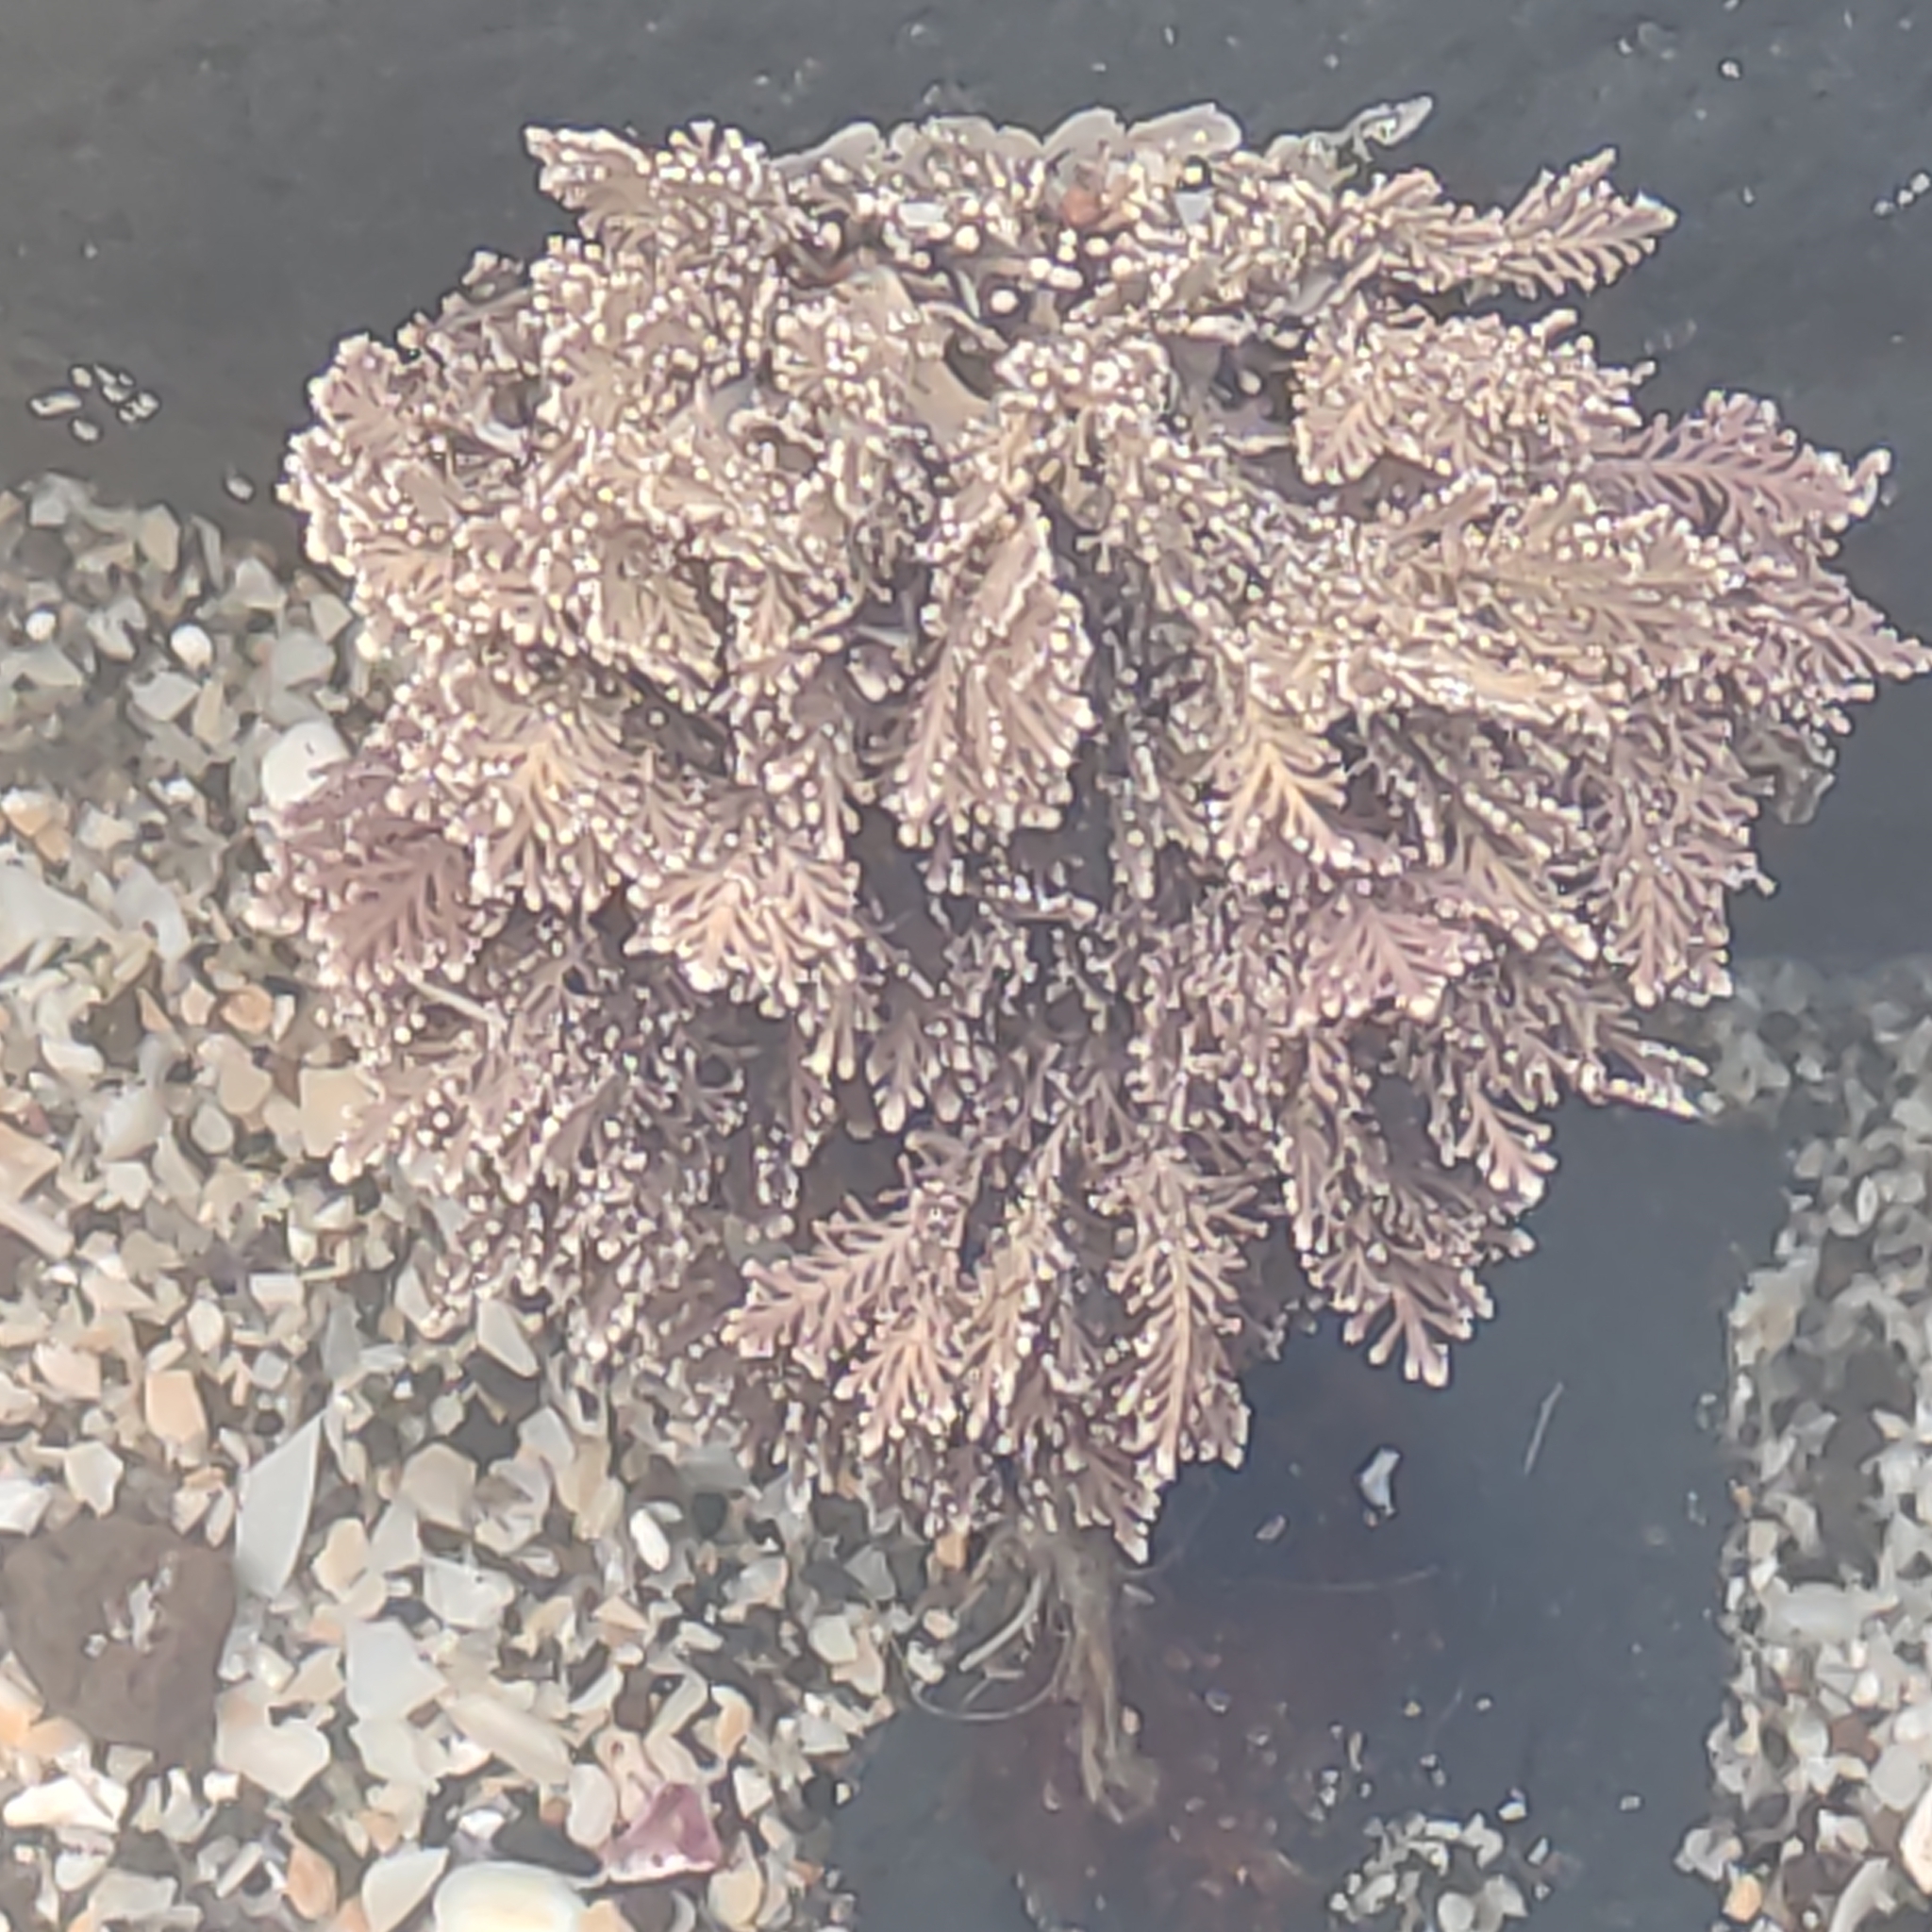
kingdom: Plantae
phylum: Rhodophyta
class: Florideophyceae
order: Corallinales
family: Corallinaceae
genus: Corallina
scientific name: Corallina officinalis
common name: Coral weed
